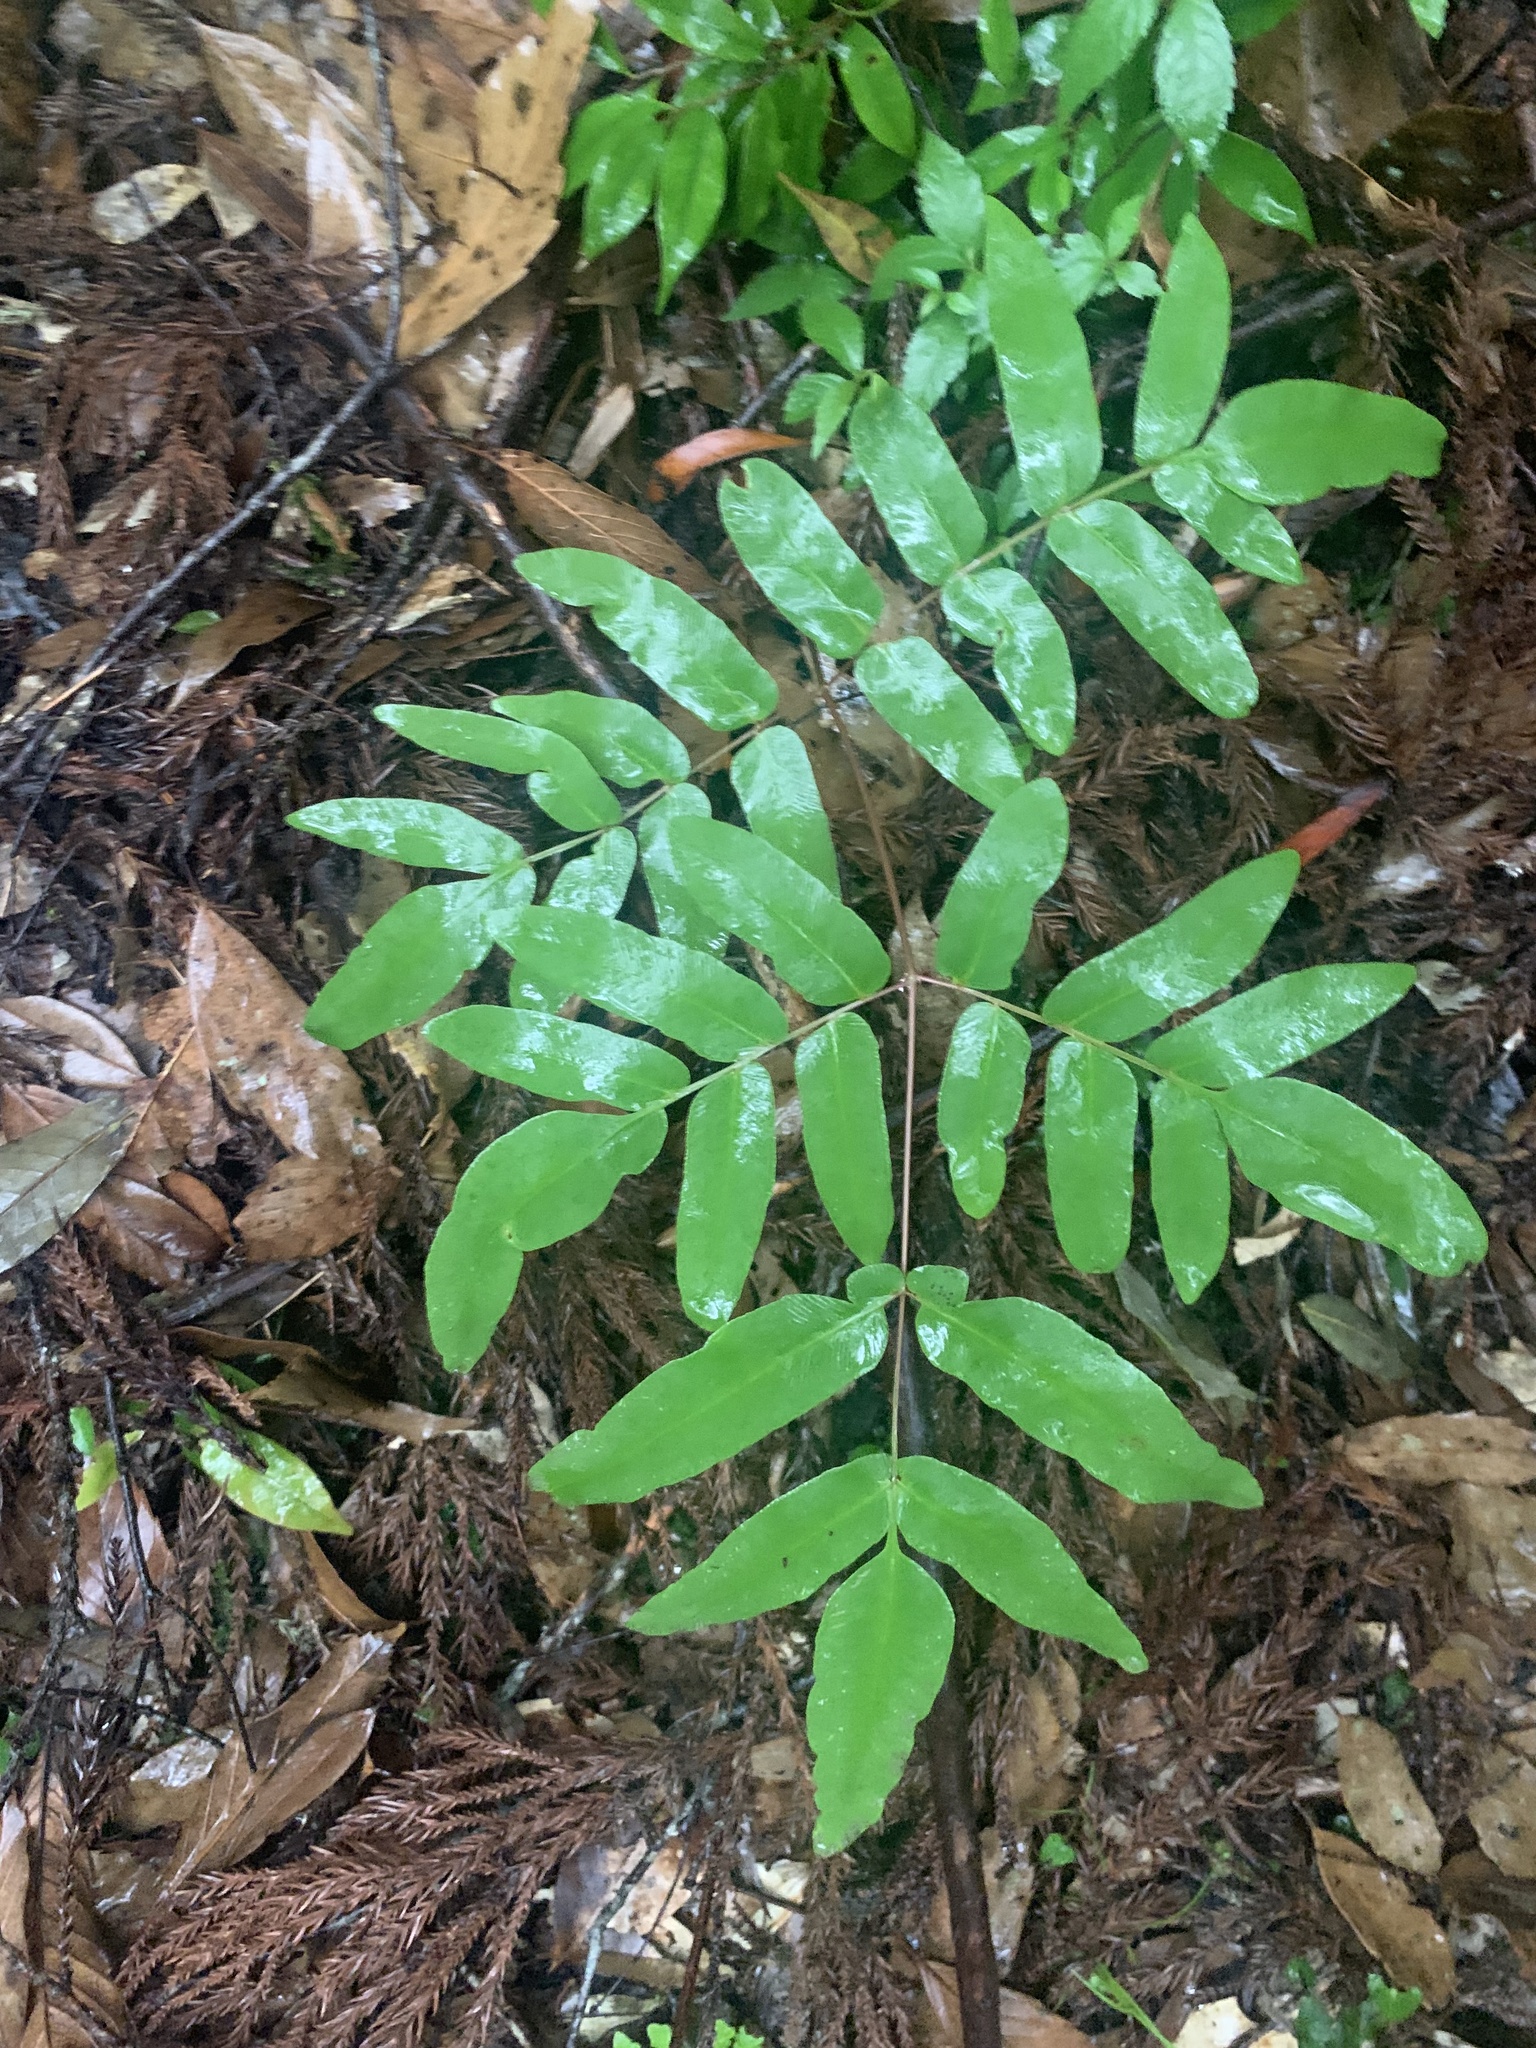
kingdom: Plantae
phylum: Tracheophyta
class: Polypodiopsida
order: Osmundales
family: Osmundaceae
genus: Osmunda
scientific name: Osmunda japonica
